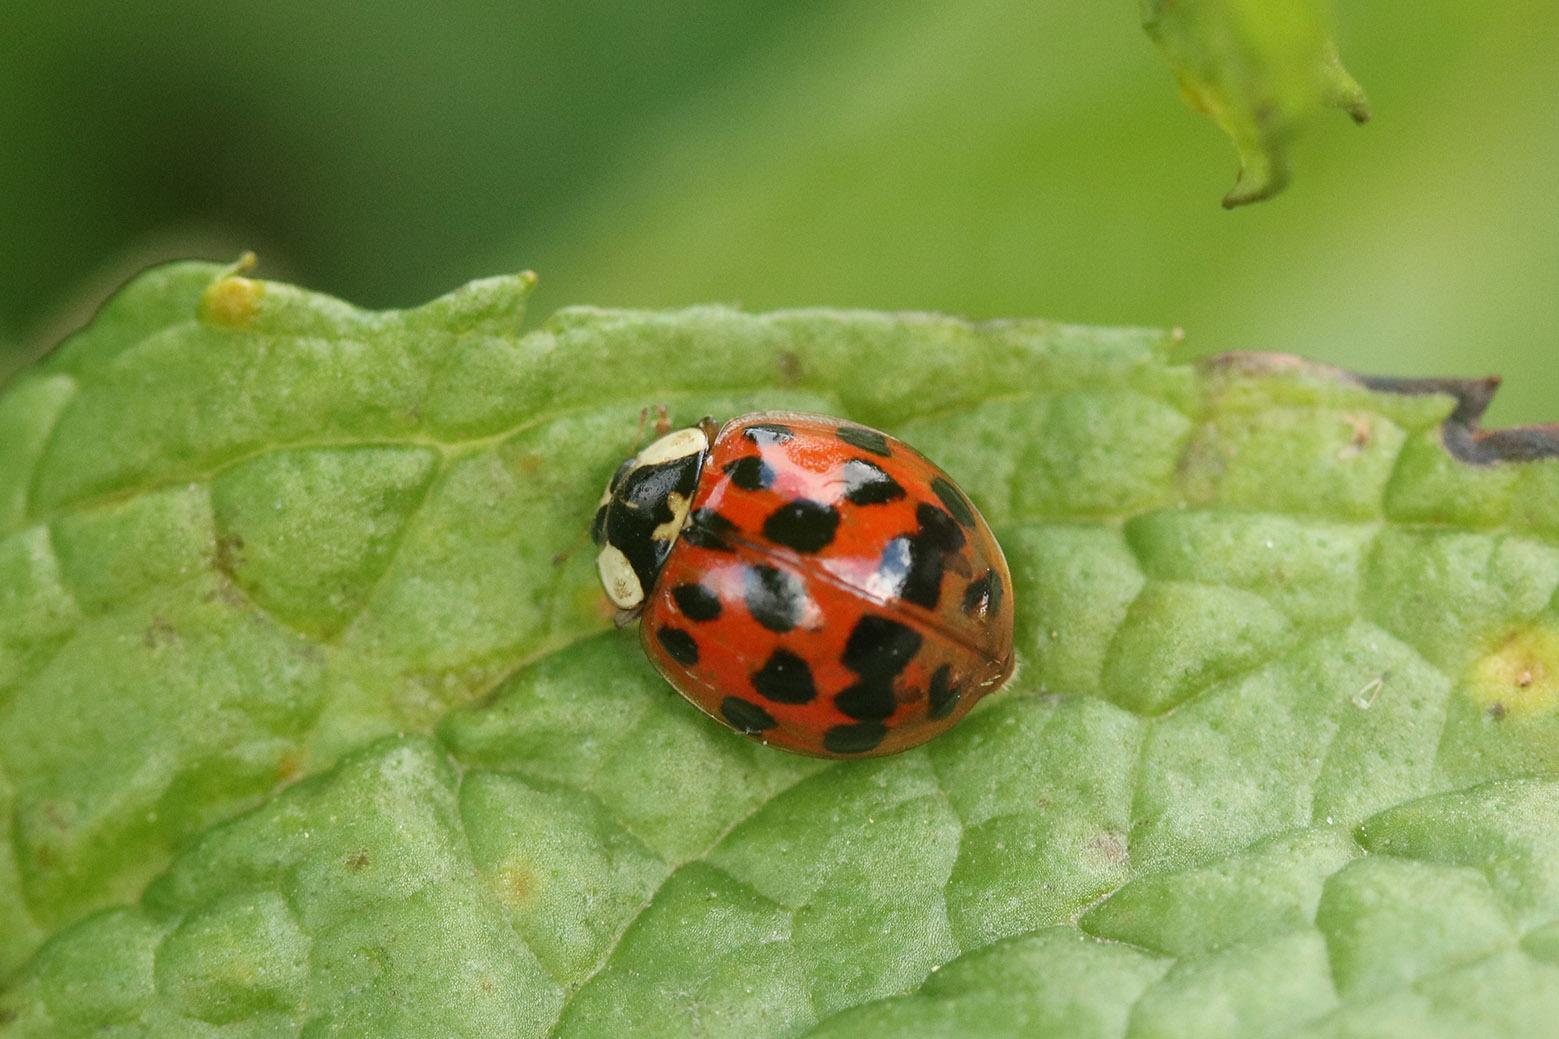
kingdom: Animalia
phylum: Arthropoda
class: Insecta
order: Coleoptera
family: Coccinellidae
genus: Harmonia
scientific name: Harmonia axyridis
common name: Harlequin ladybird
